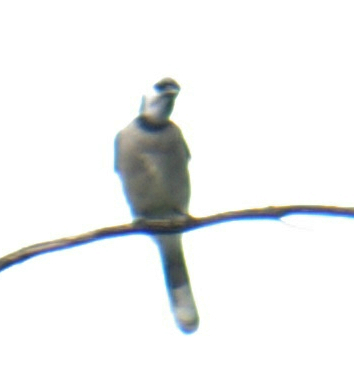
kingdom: Animalia
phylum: Chordata
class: Aves
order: Passeriformes
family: Corvidae
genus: Cyanocitta
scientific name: Cyanocitta cristata
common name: Blue jay
